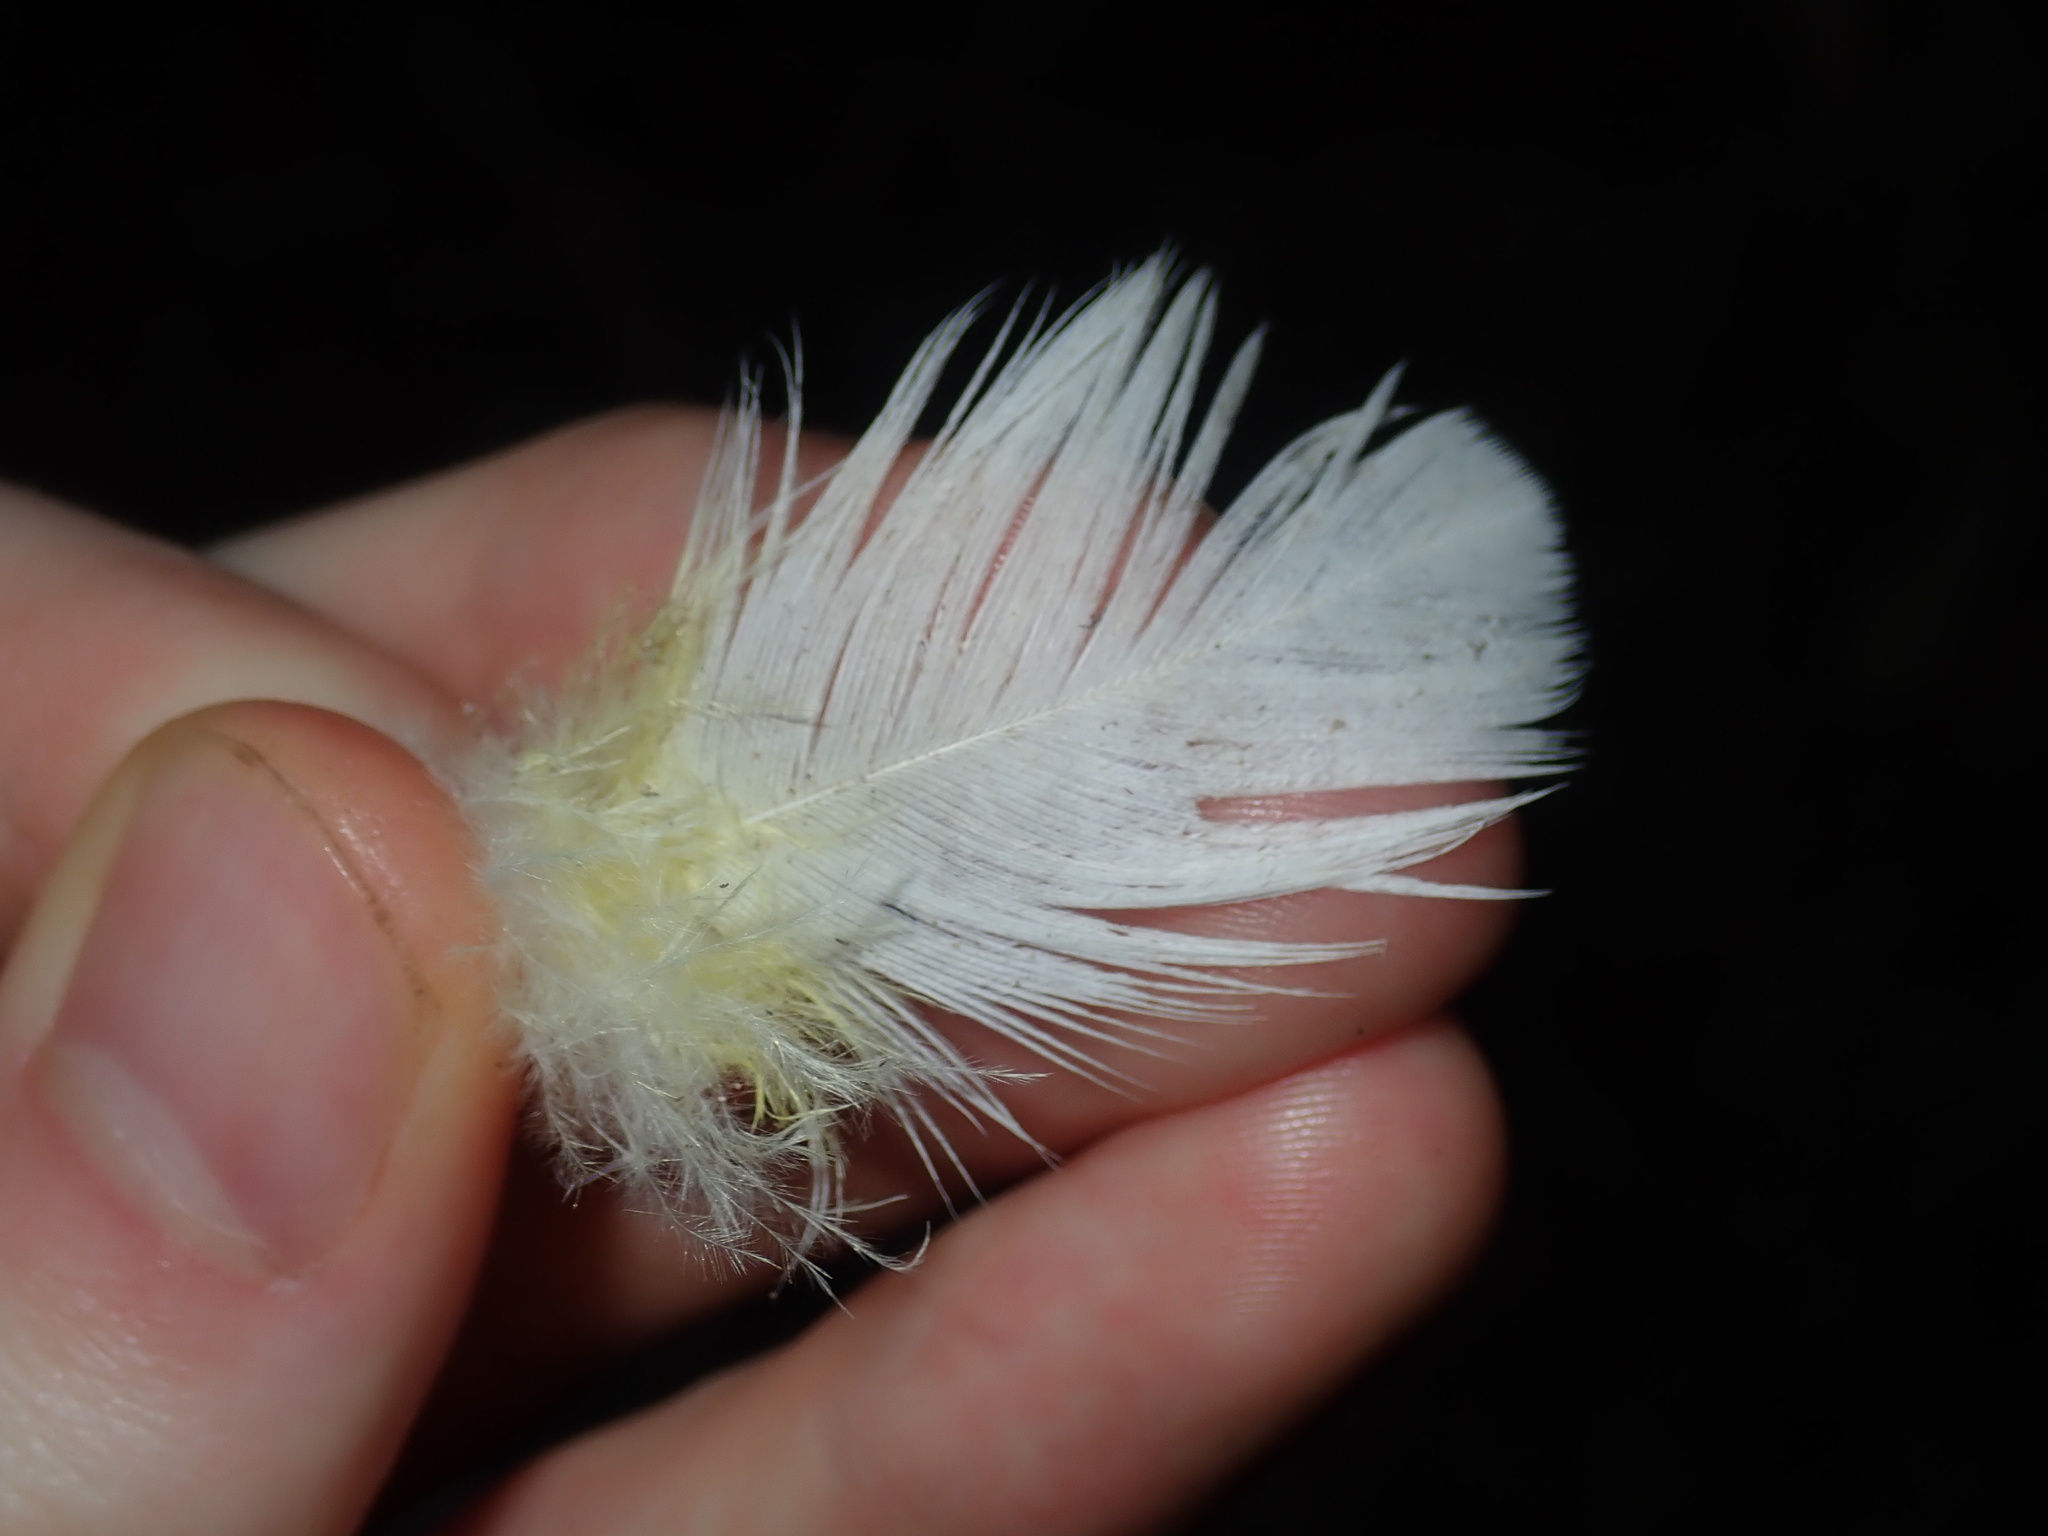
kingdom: Animalia
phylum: Chordata
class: Aves
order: Psittaciformes
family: Psittacidae
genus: Cacatua
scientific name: Cacatua galerita
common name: Sulphur-crested cockatoo
